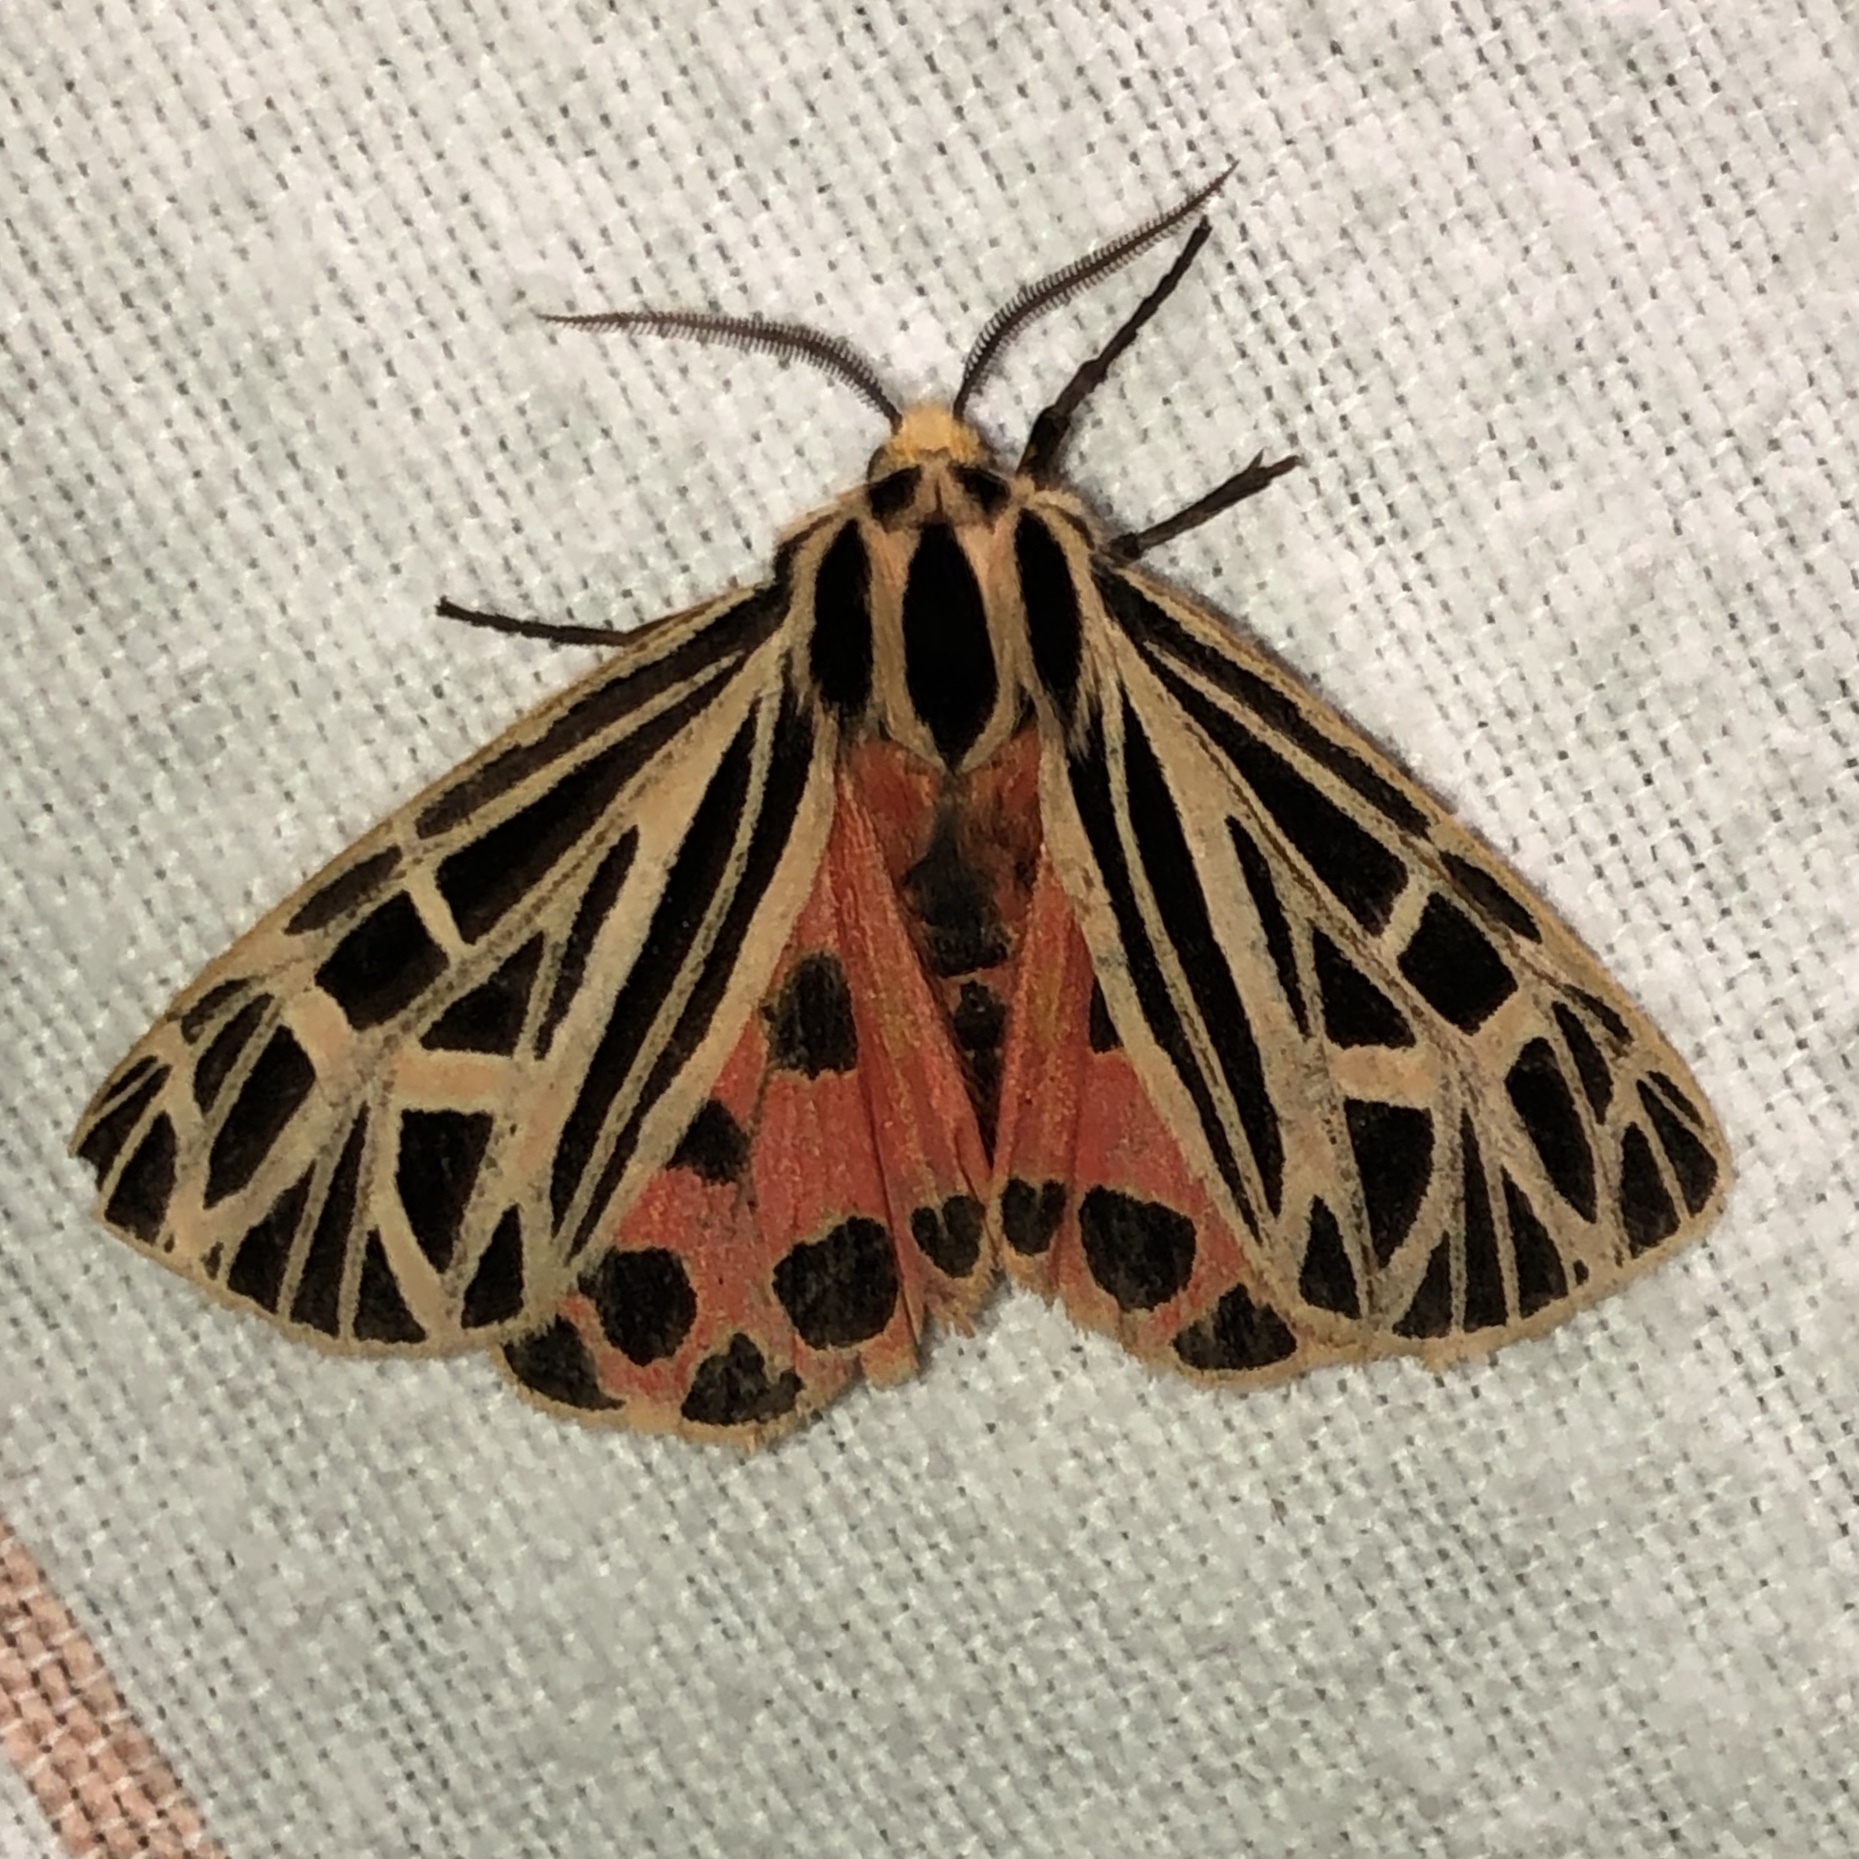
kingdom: Animalia
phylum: Arthropoda
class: Insecta
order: Lepidoptera
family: Erebidae
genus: Grammia
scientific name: Grammia virgo
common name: Virgin tiger moth
